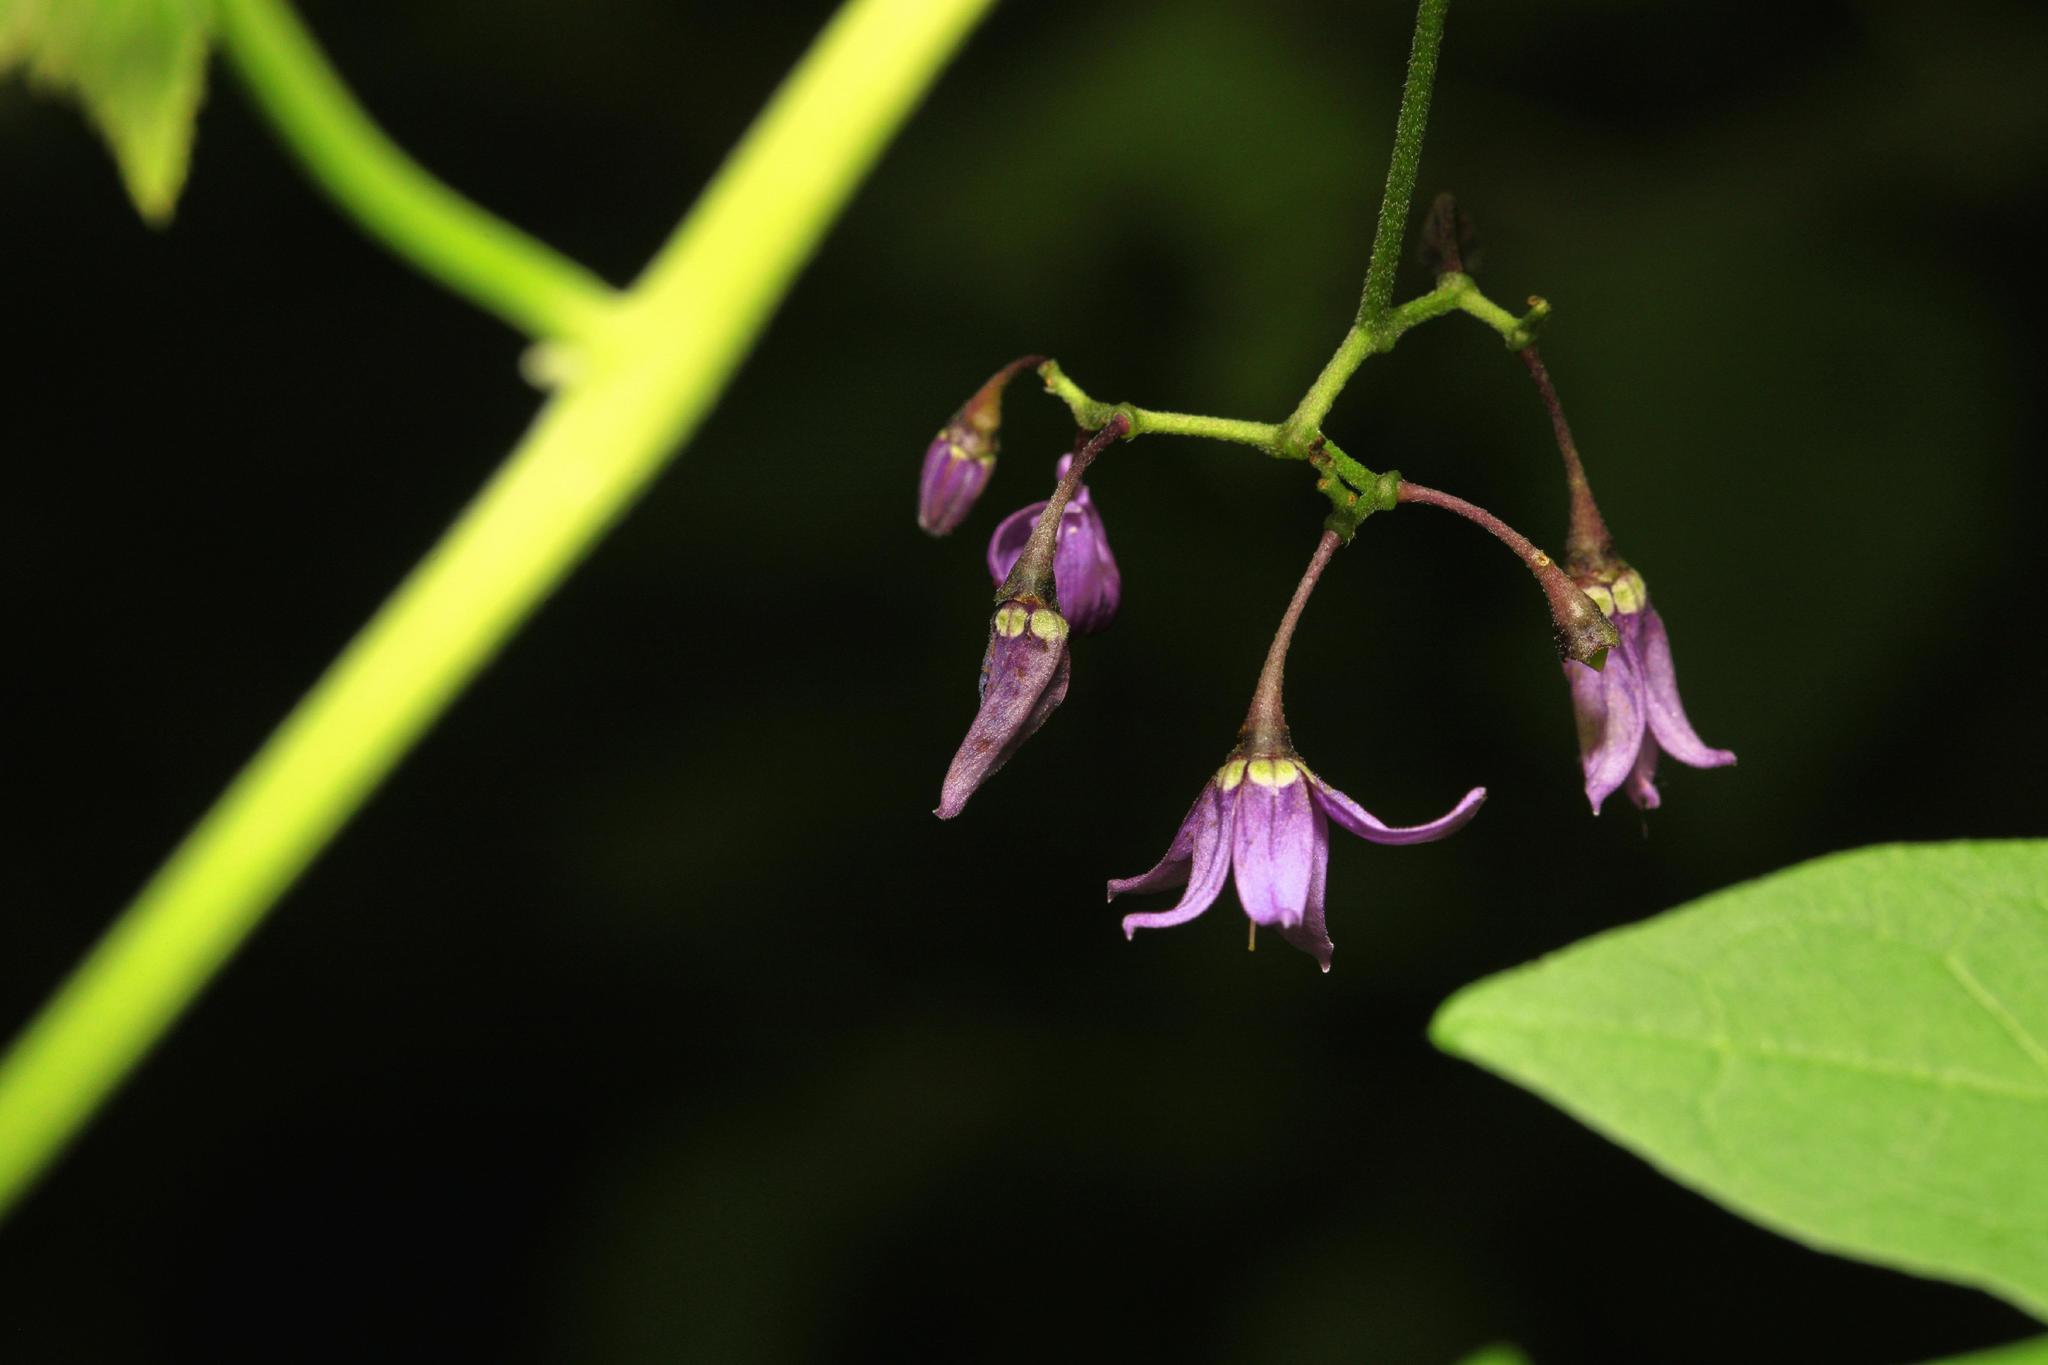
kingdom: Plantae
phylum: Tracheophyta
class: Magnoliopsida
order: Solanales
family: Solanaceae
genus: Solanum
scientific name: Solanum dulcamara
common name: Climbing nightshade
